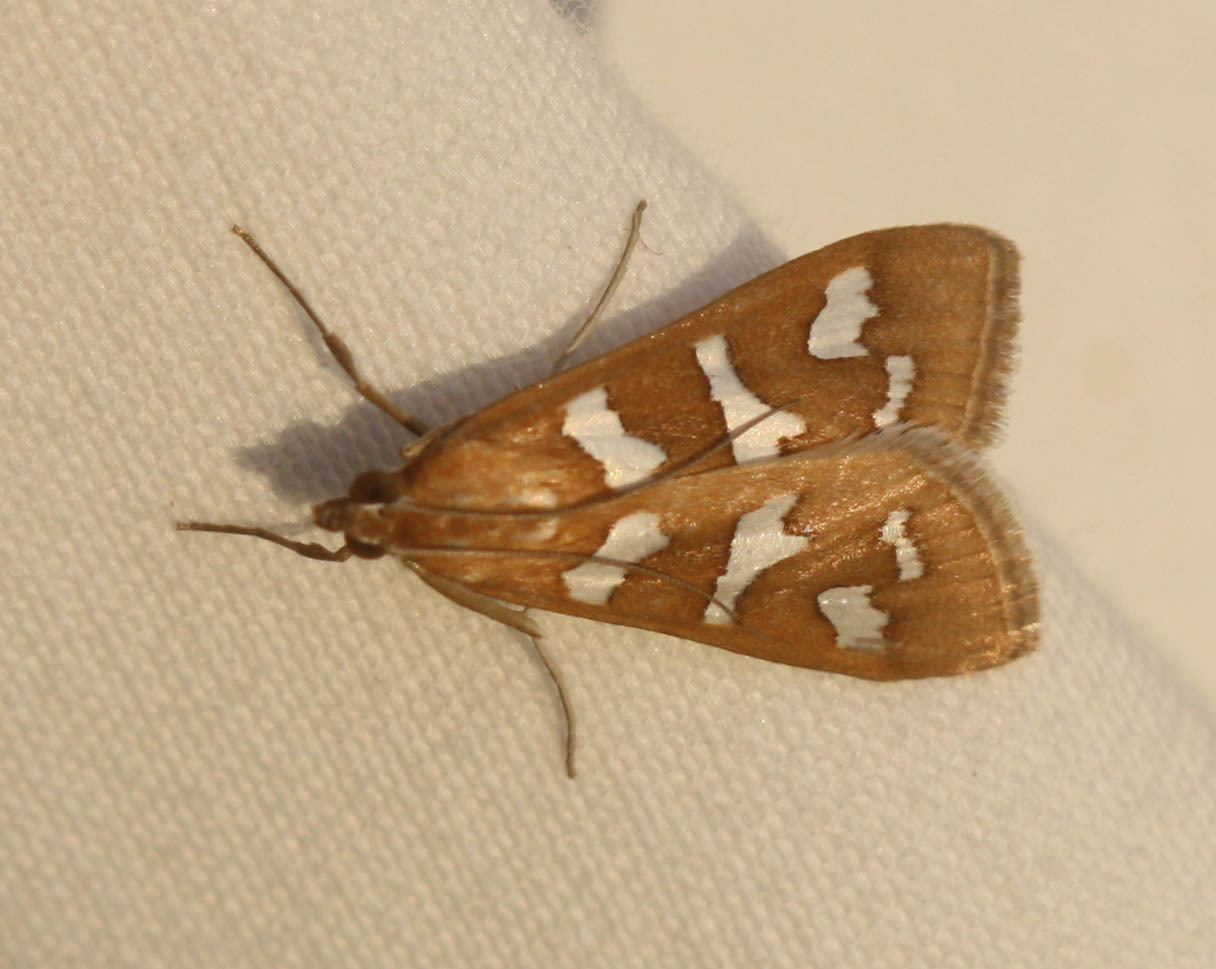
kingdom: Animalia
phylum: Arthropoda
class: Insecta
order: Lepidoptera
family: Crambidae
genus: Diastictis
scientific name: Diastictis fracturalis
